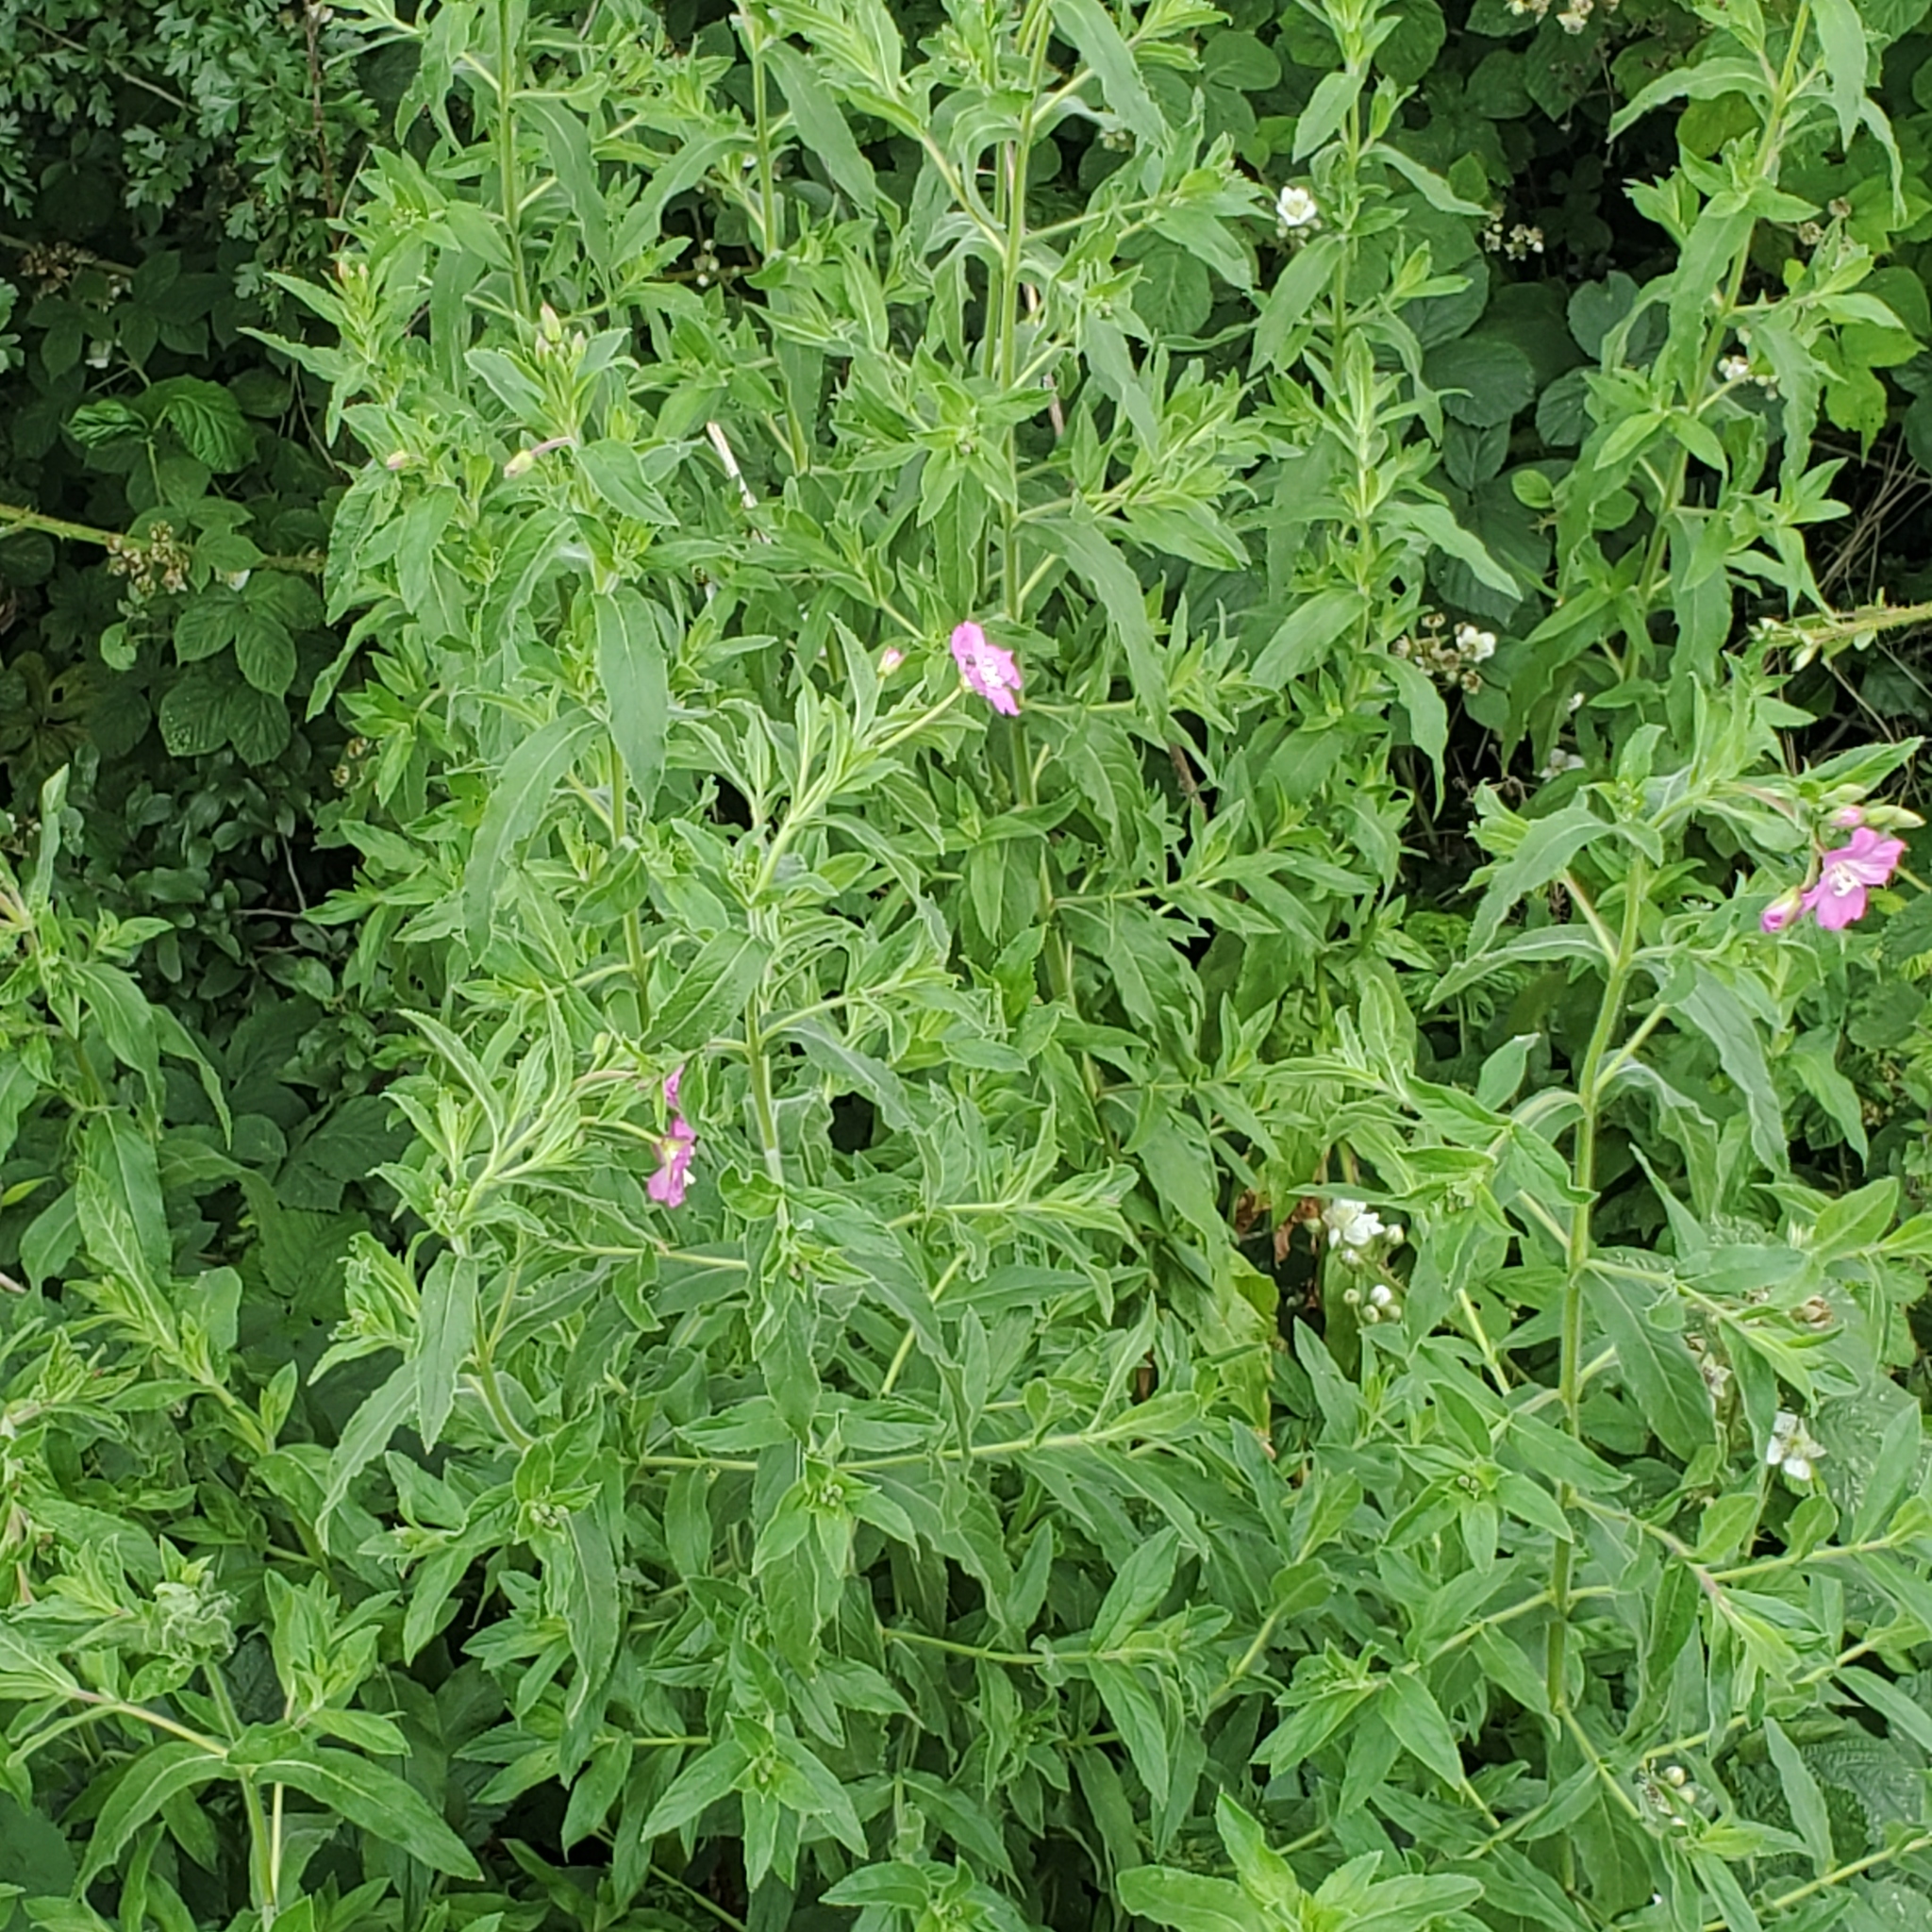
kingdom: Plantae
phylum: Tracheophyta
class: Magnoliopsida
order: Myrtales
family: Onagraceae
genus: Epilobium
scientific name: Epilobium hirsutum
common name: Great willowherb
